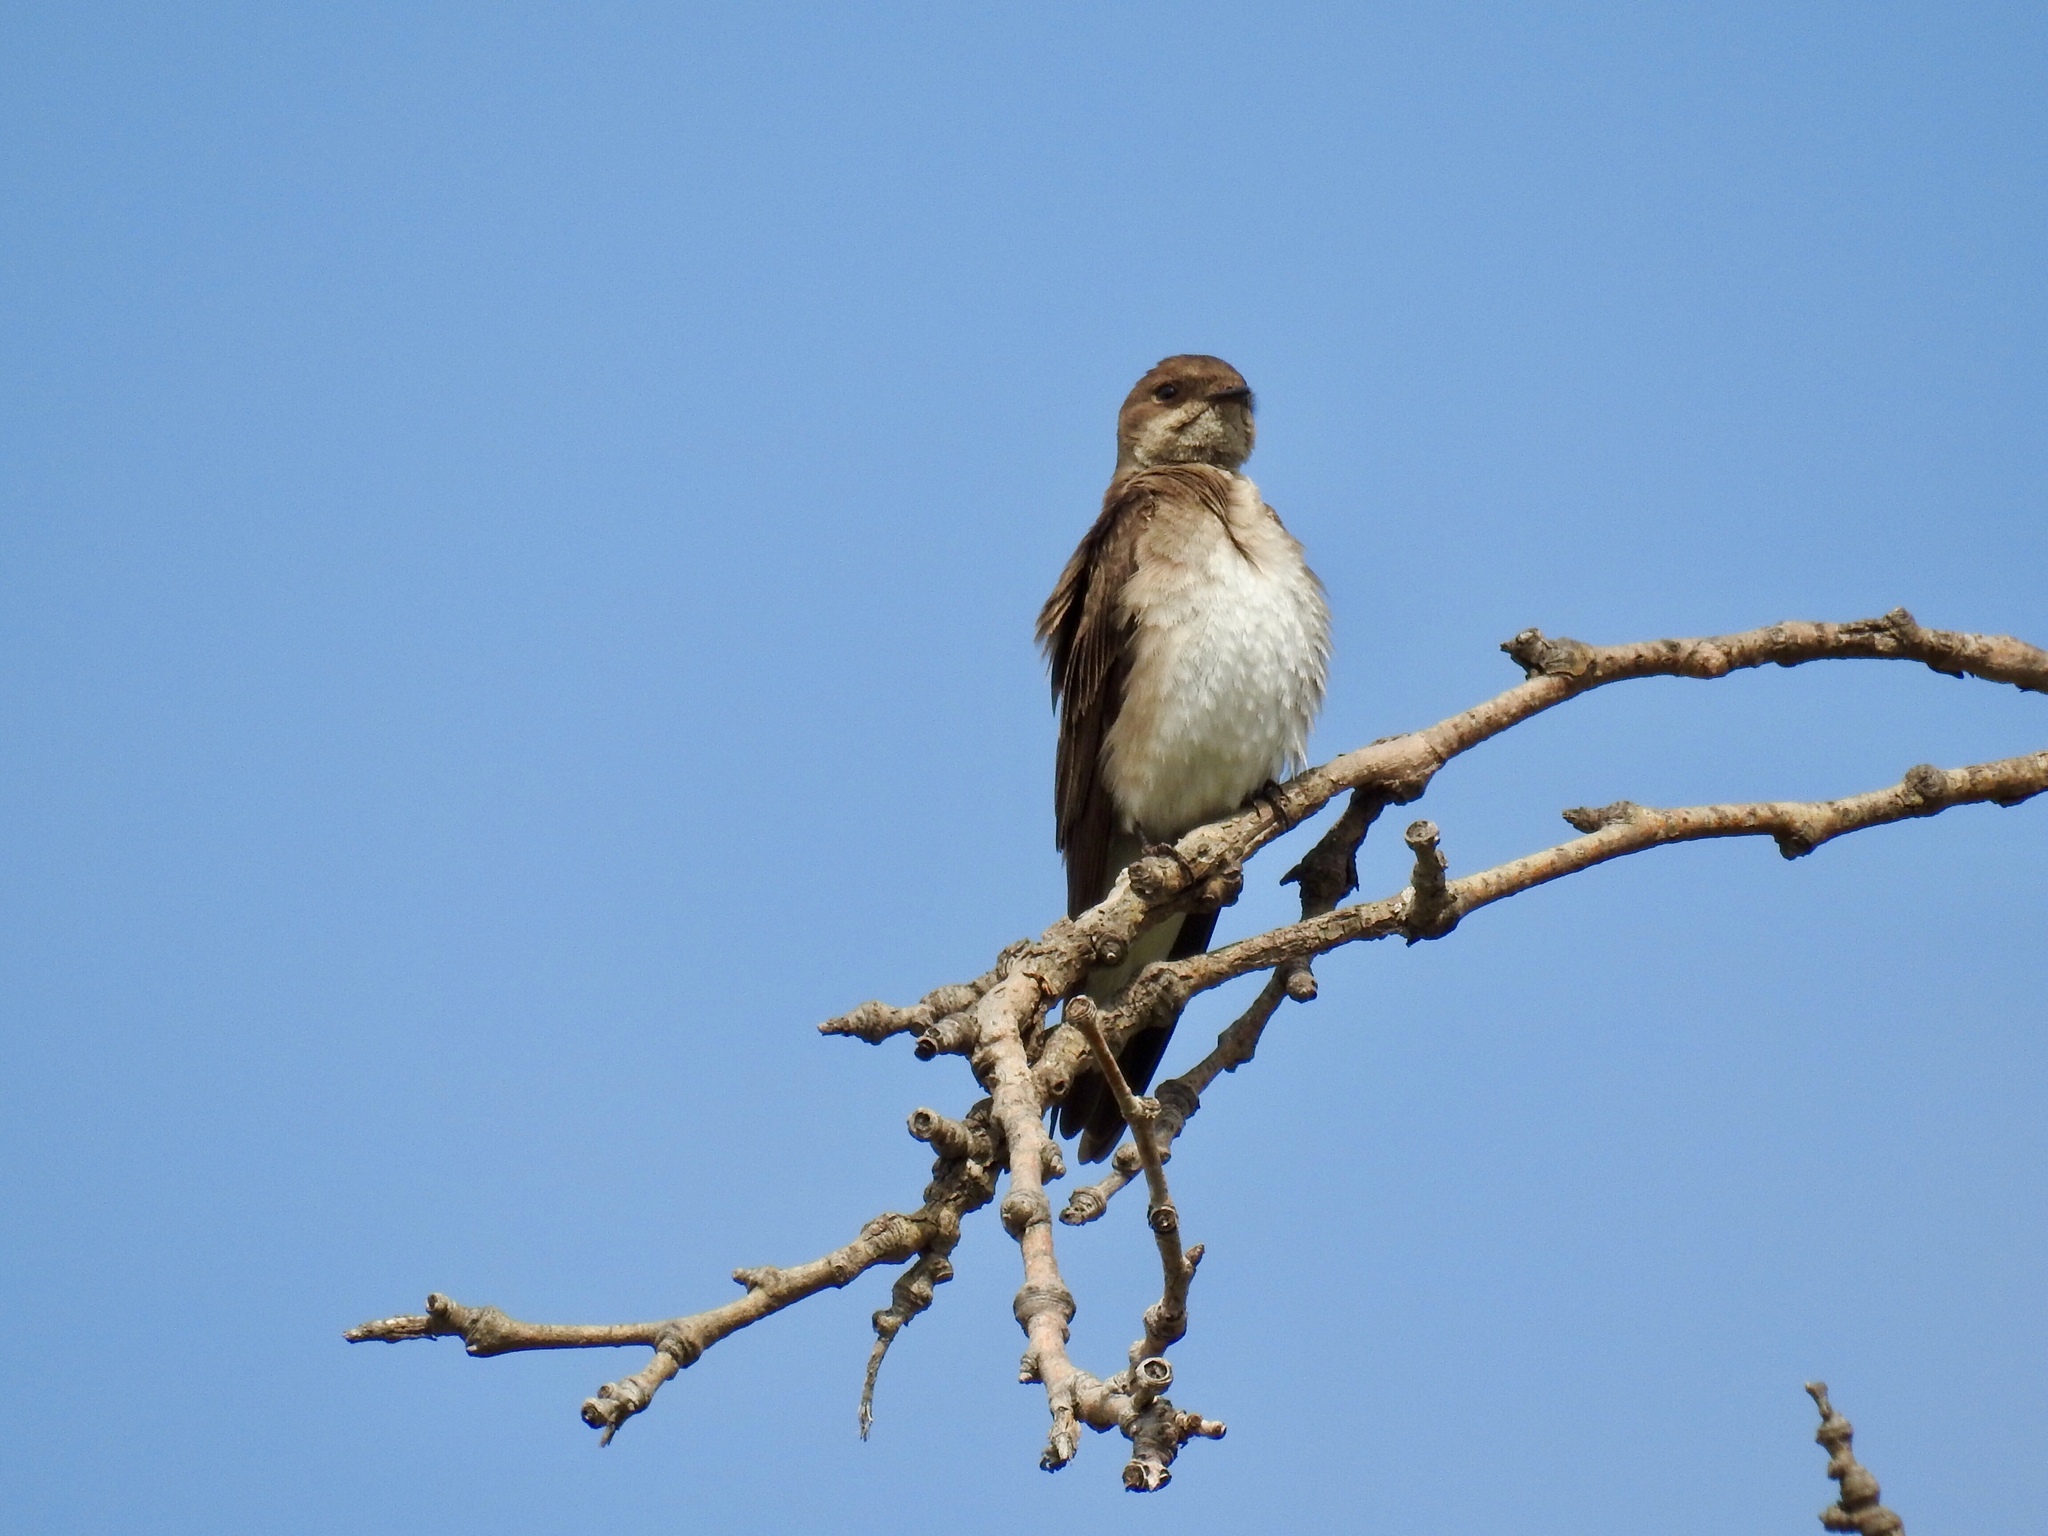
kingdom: Animalia
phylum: Chordata
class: Aves
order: Passeriformes
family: Hirundinidae
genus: Stelgidopteryx
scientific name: Stelgidopteryx serripennis
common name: Northern rough-winged swallow
